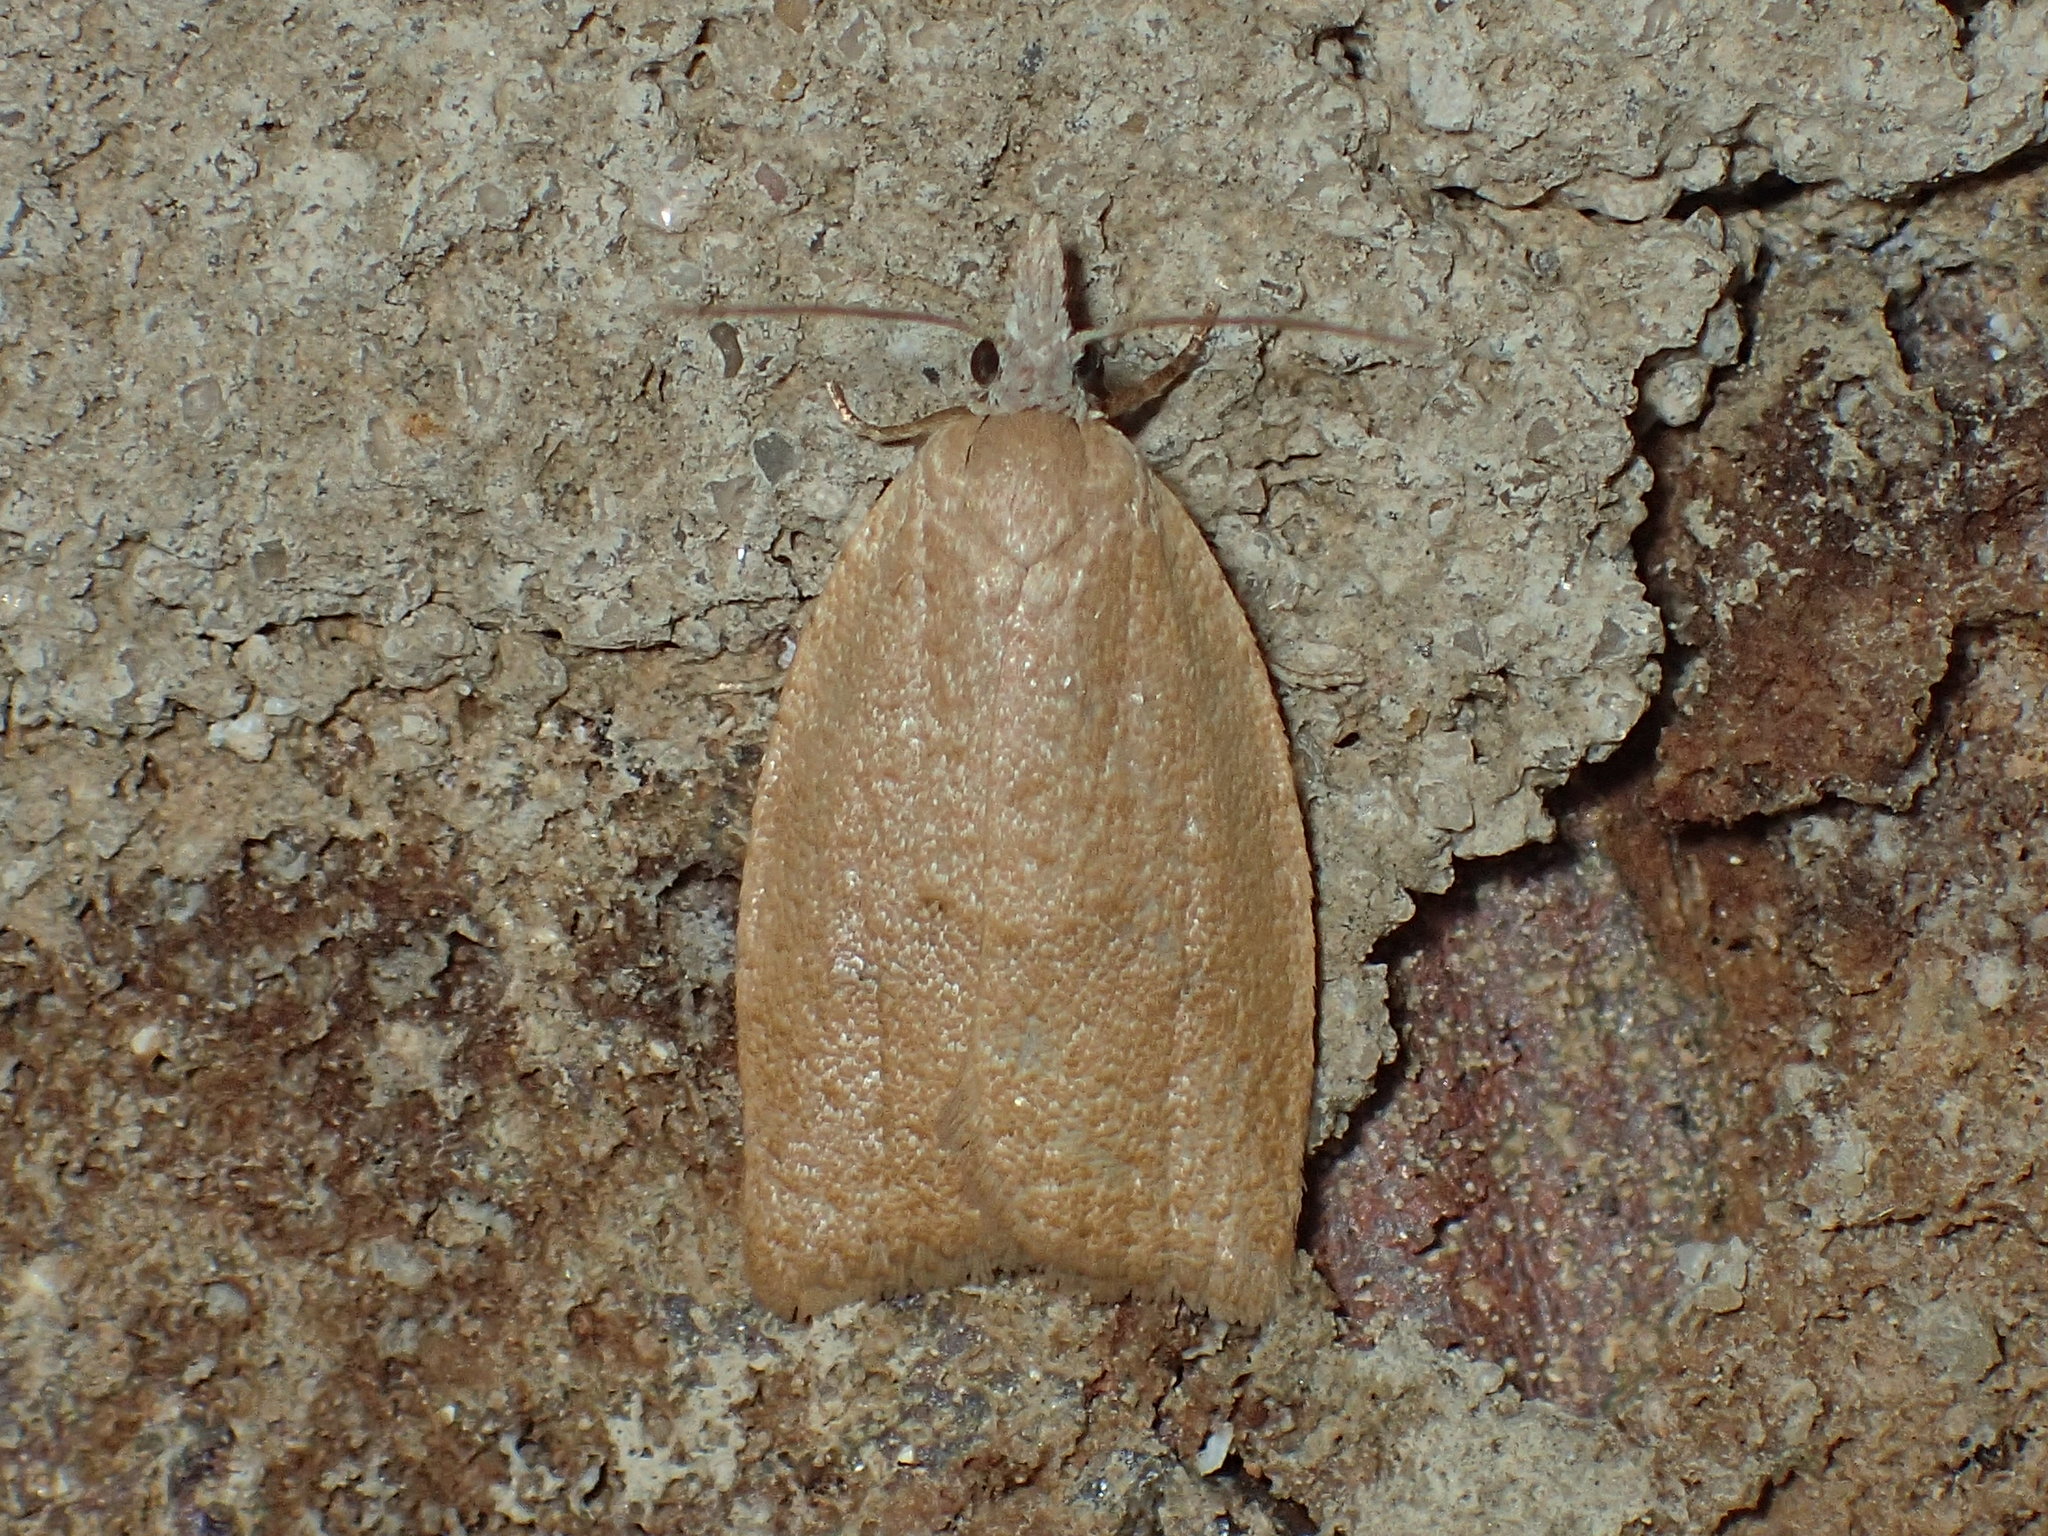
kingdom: Animalia
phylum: Arthropoda
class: Insecta
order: Lepidoptera
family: Tortricidae
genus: Sparganothoides
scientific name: Sparganothoides lentiginosana
